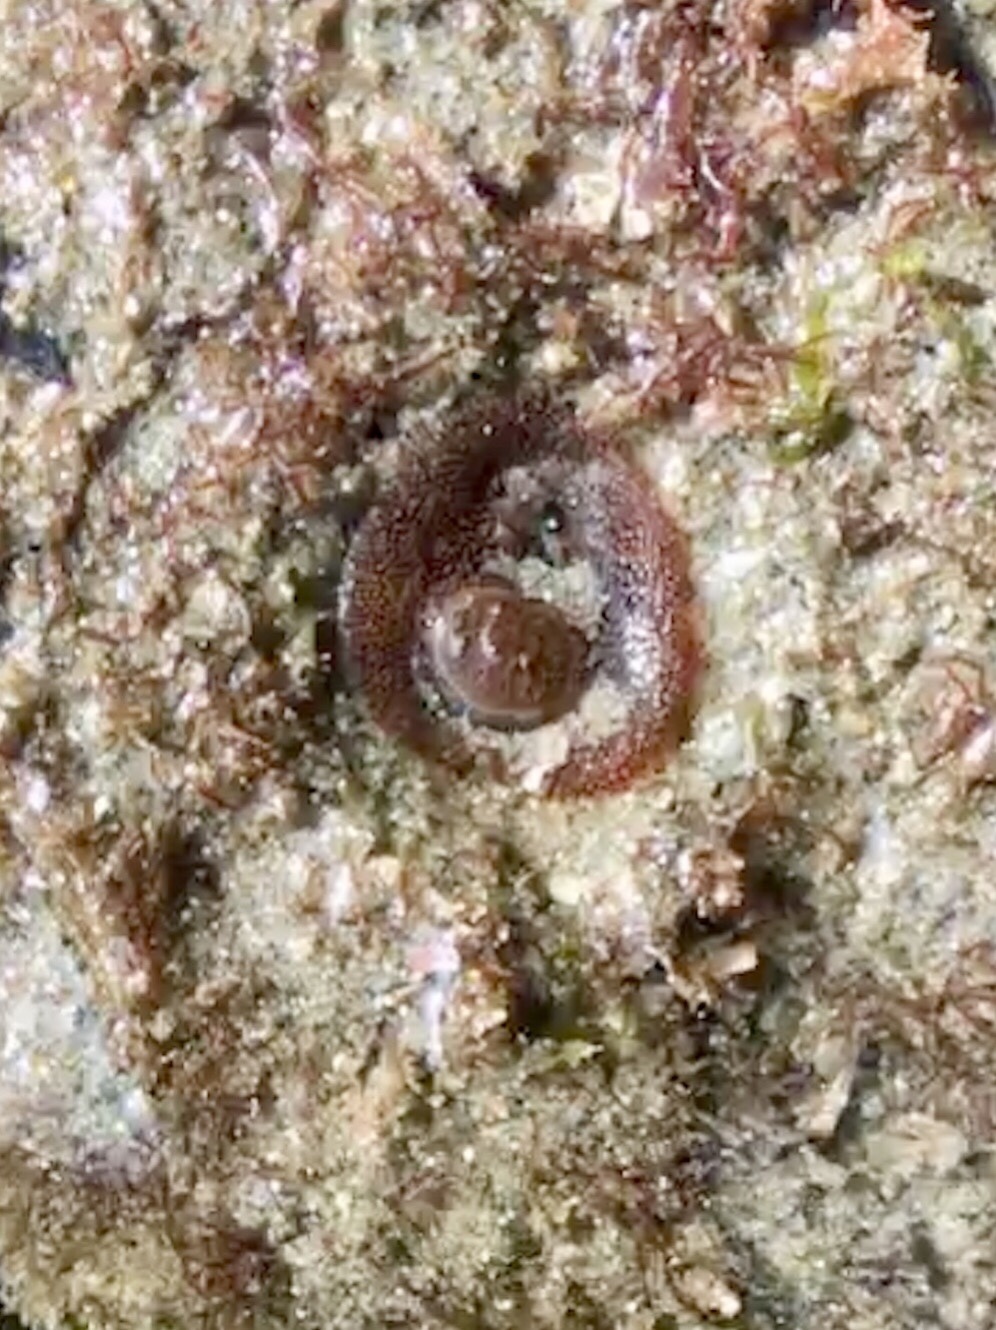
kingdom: Animalia
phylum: Mollusca
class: Bivalvia
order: Myida
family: Pholadidae
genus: Parapholas
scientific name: Parapholas californica
